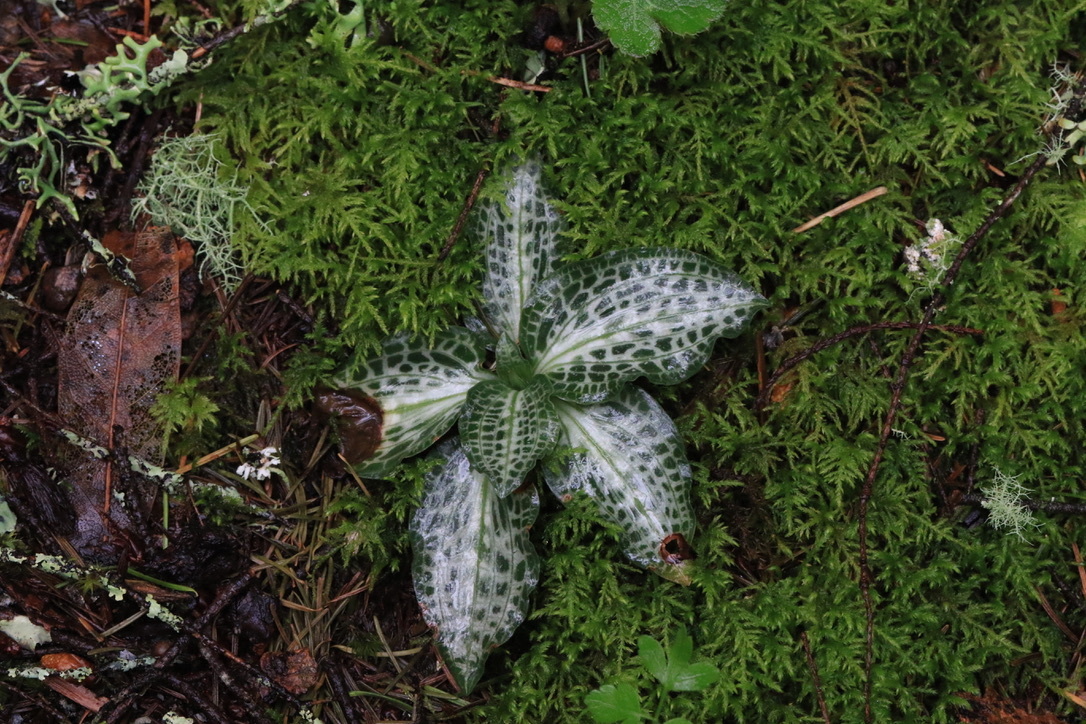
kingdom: Plantae
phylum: Tracheophyta
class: Liliopsida
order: Asparagales
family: Orchidaceae
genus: Goodyera
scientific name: Goodyera oblongifolia
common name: Giant rattlesnake-plantain
